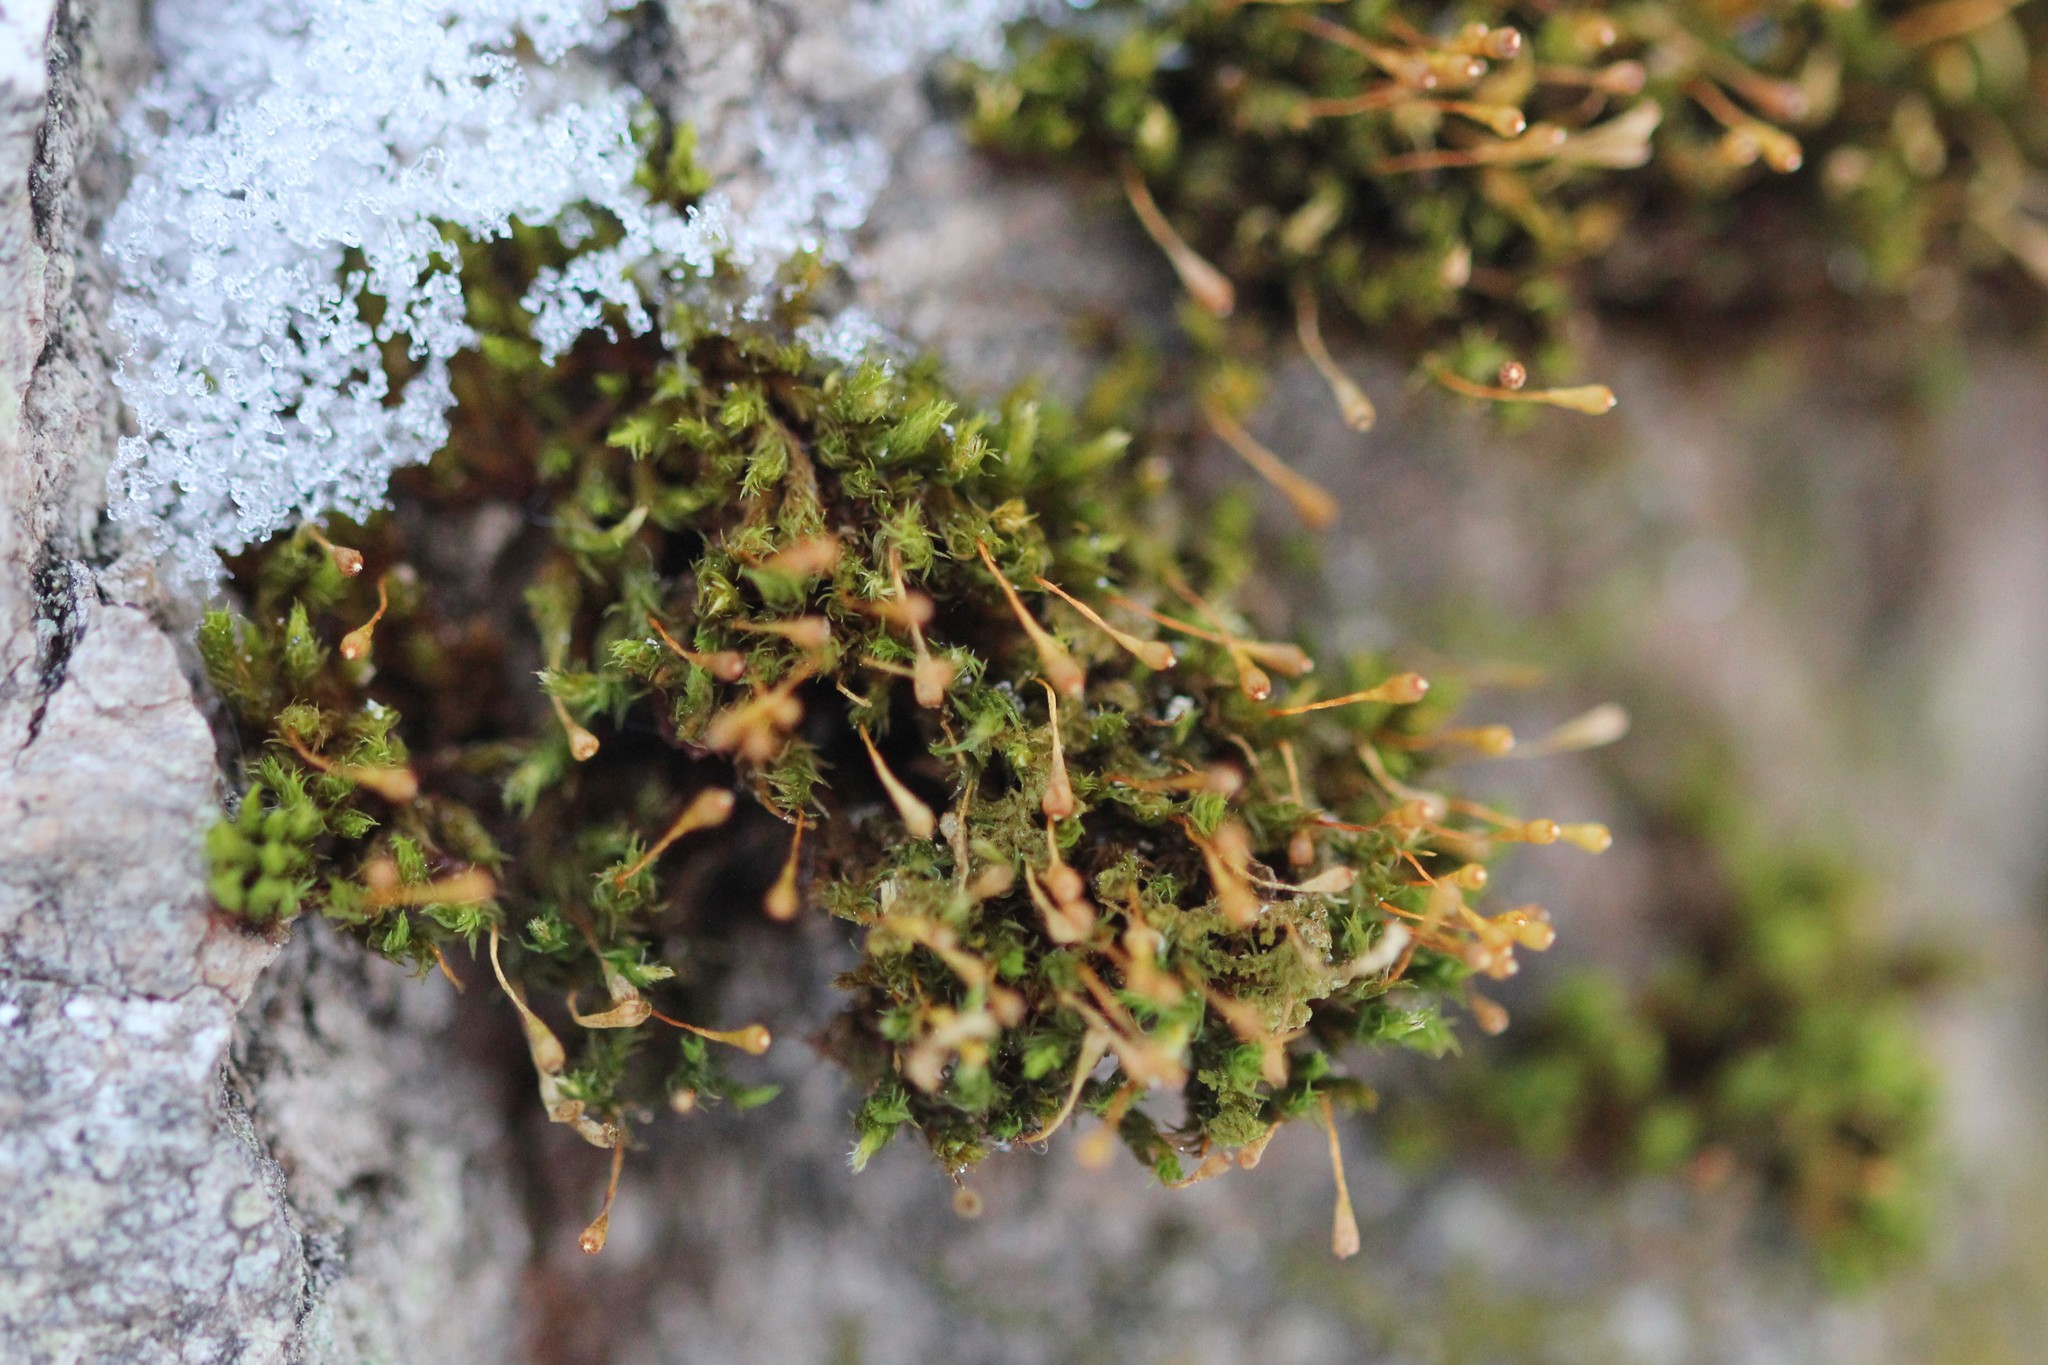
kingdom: Plantae
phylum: Bryophyta
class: Bryopsida
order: Orthotrichales
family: Orthotrichaceae
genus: Ulota
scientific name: Ulota coarctata
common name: Club pincushion moss
